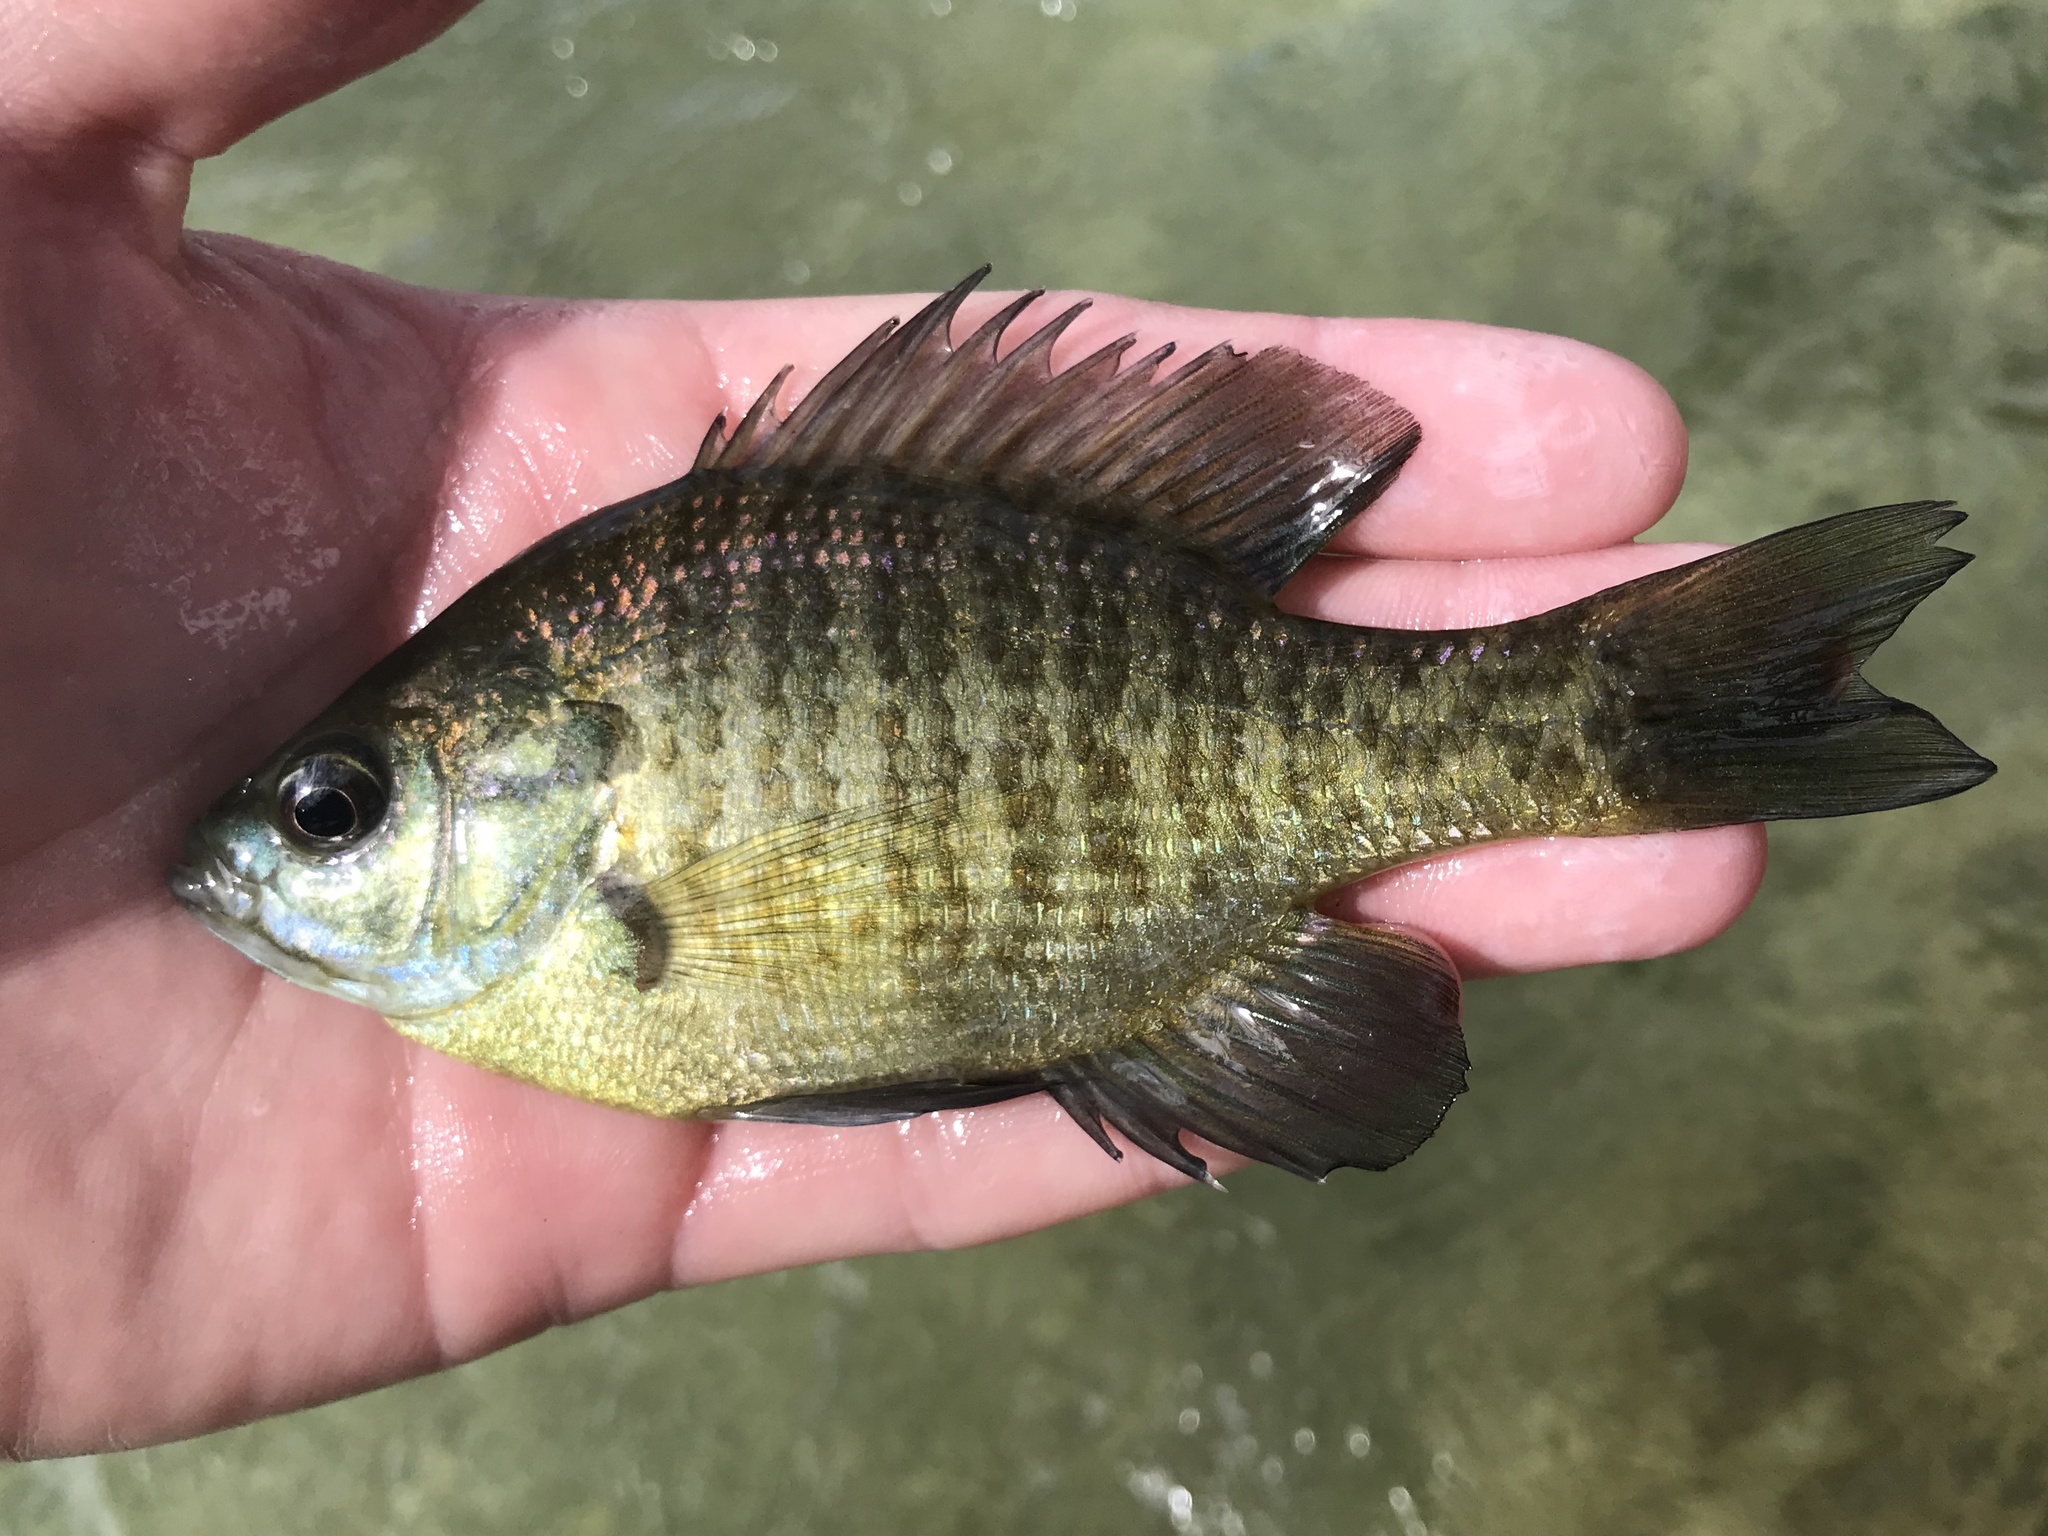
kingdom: Animalia
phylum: Chordata
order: Perciformes
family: Centrarchidae
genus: Lepomis
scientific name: Lepomis macrochirus
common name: Bluegill
